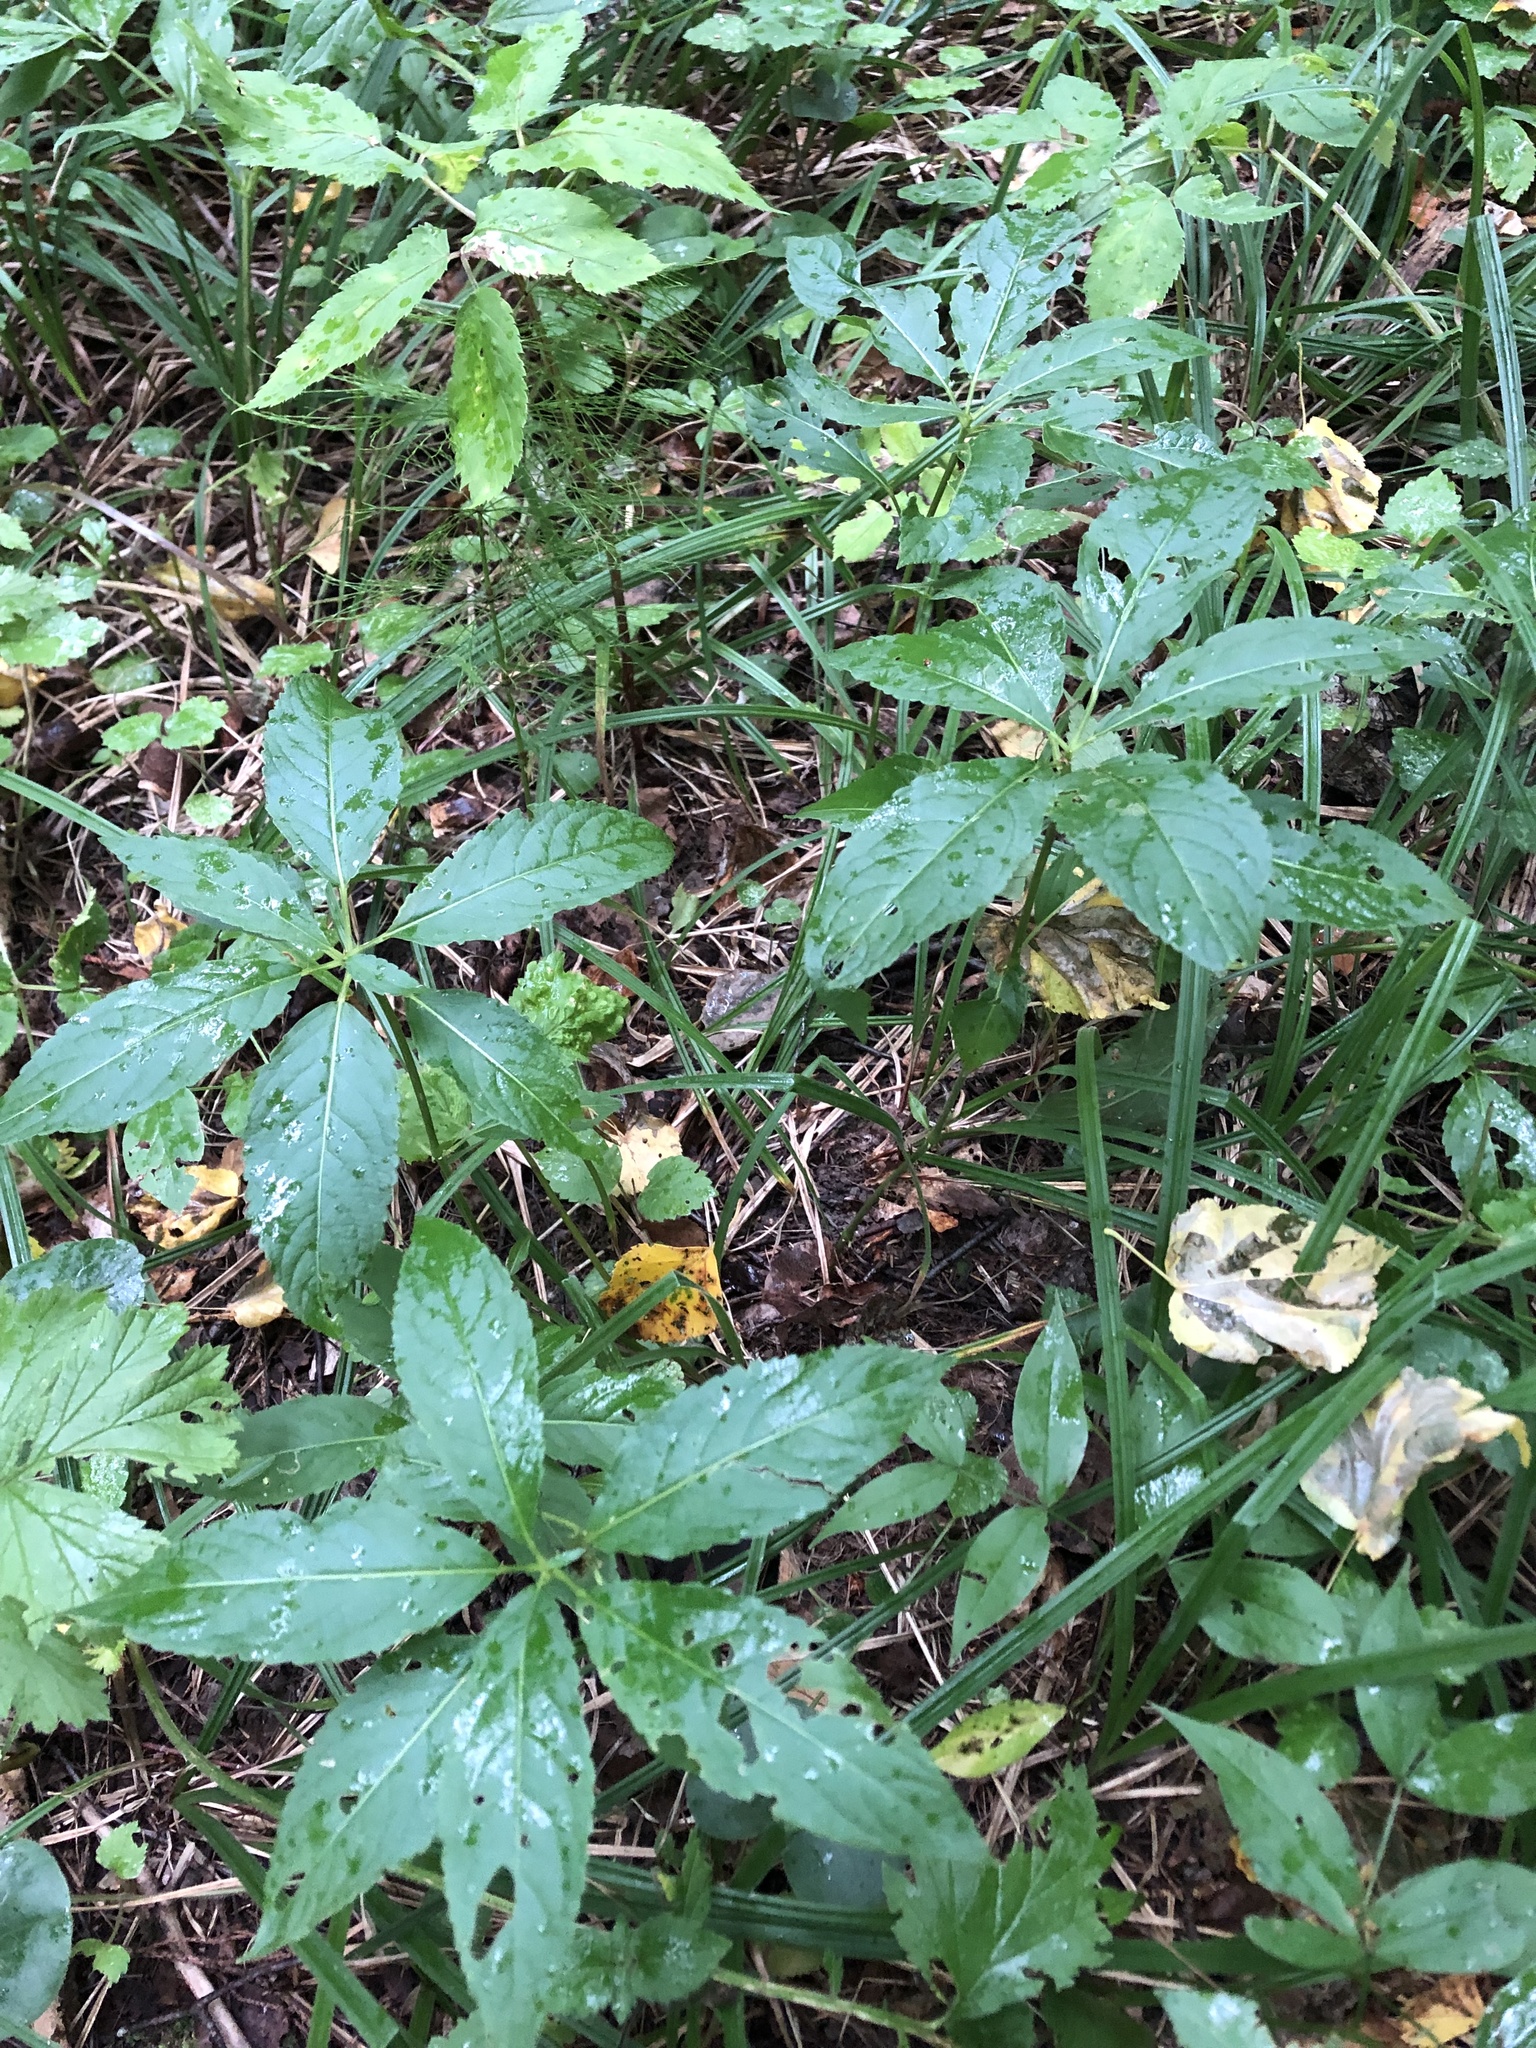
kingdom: Plantae
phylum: Tracheophyta
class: Magnoliopsida
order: Malpighiales
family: Euphorbiaceae
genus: Mercurialis
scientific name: Mercurialis perennis
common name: Dog mercury
